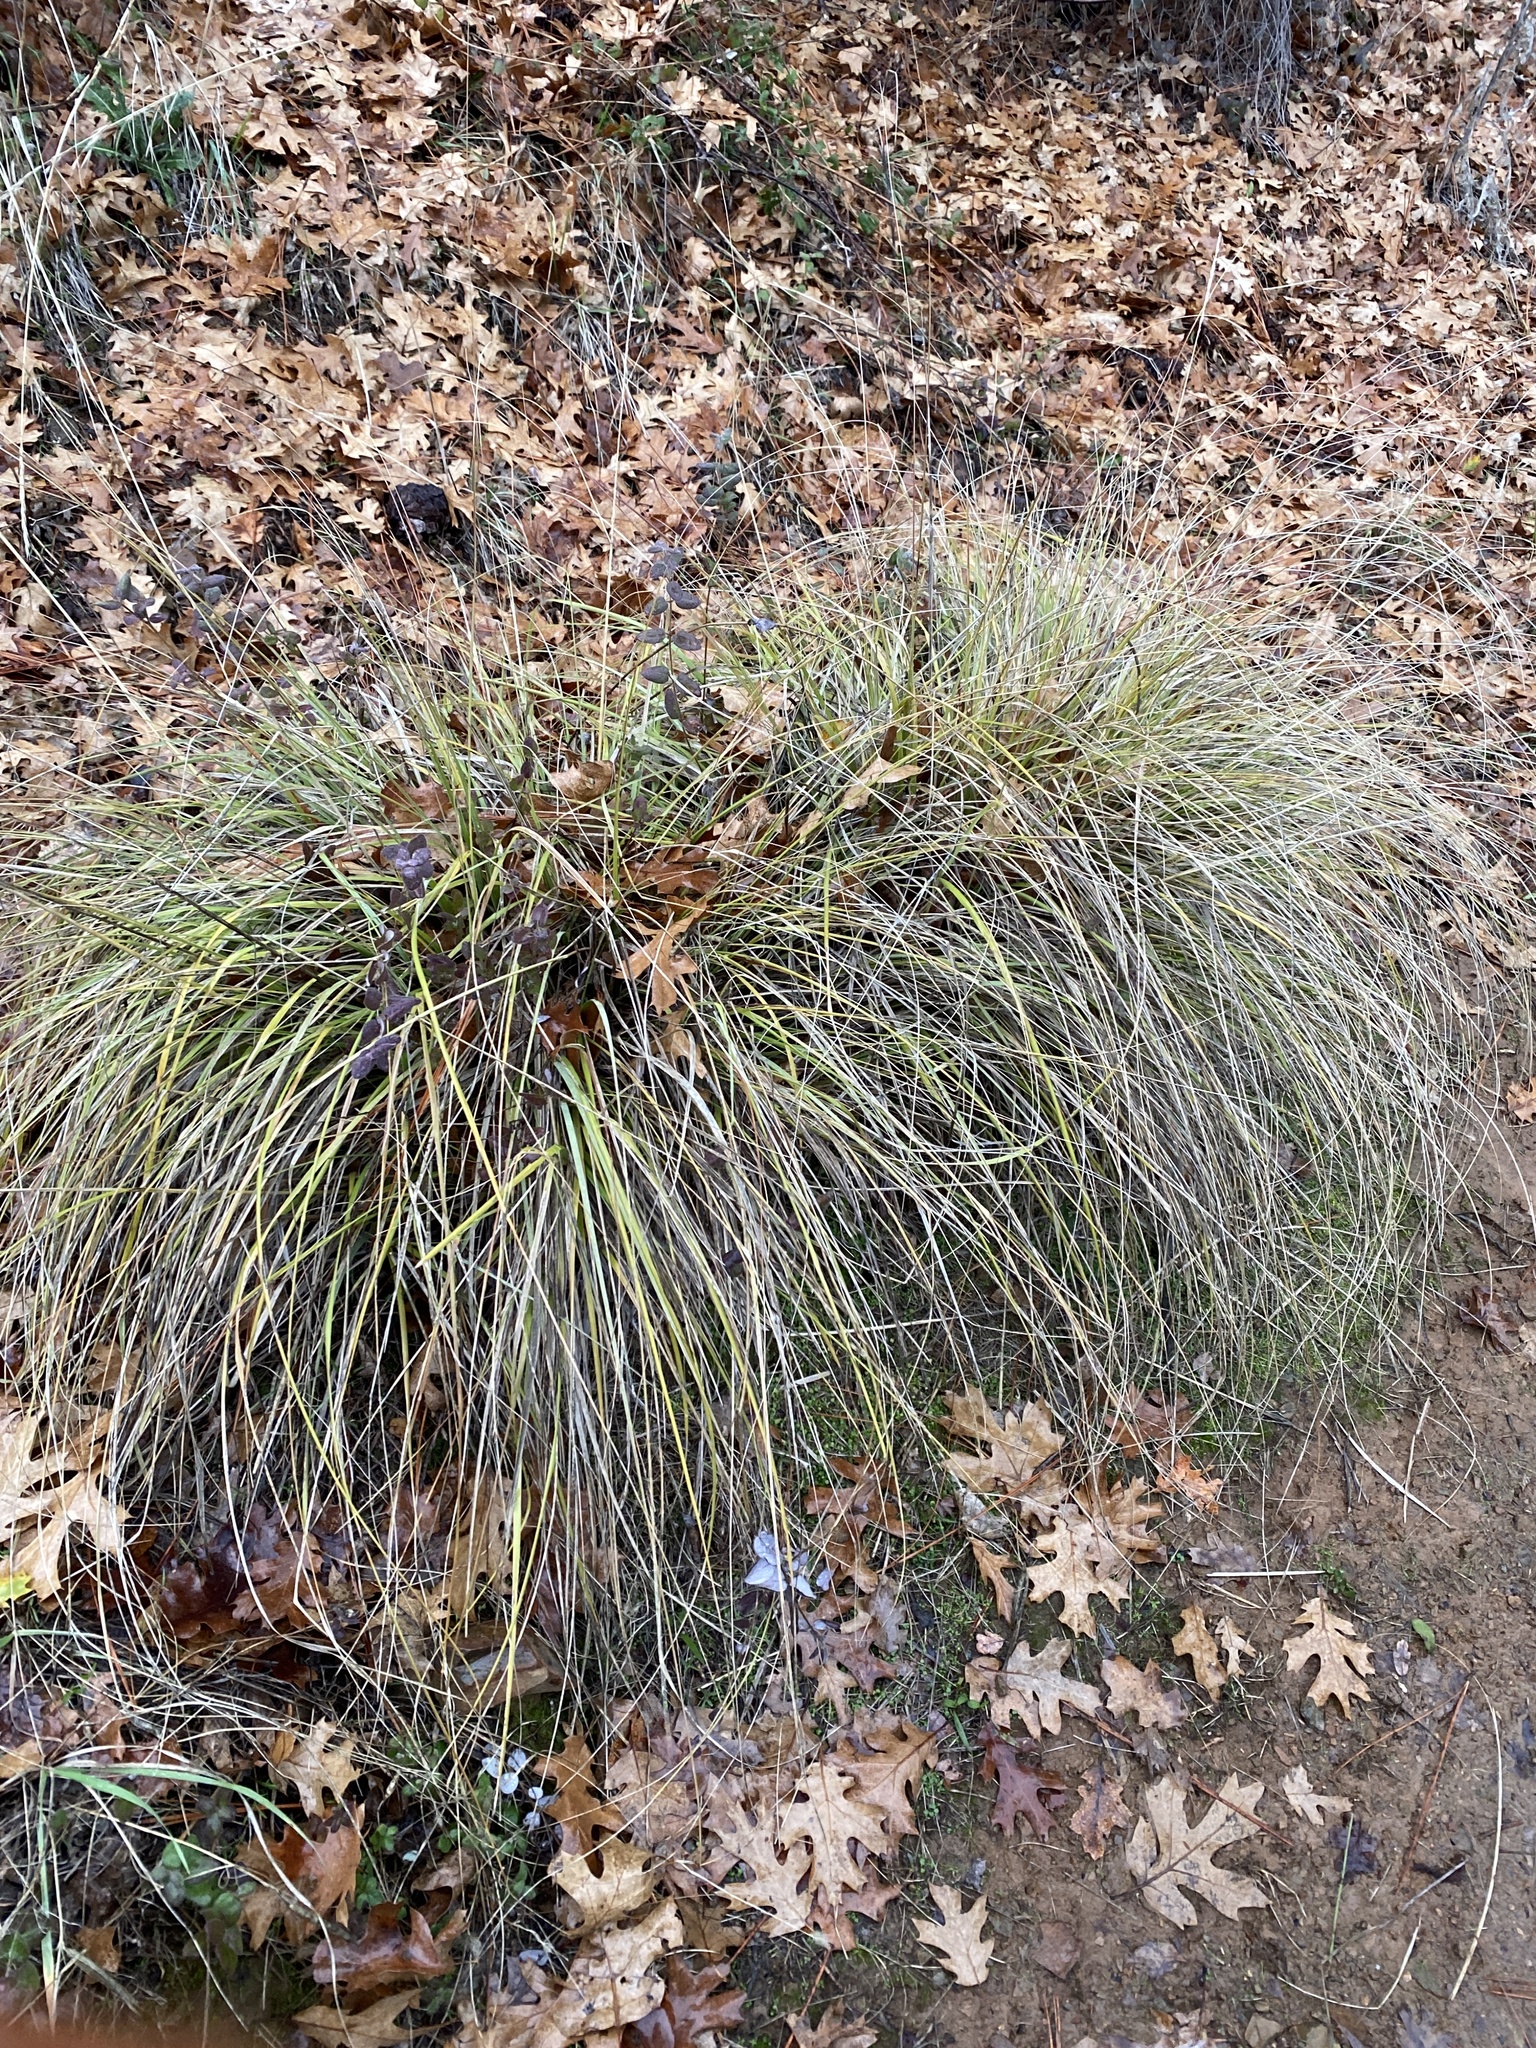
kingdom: Plantae
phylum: Tracheophyta
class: Liliopsida
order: Poales
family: Poaceae
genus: Muhlenbergia
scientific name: Muhlenbergia rigens
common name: Deer grass
